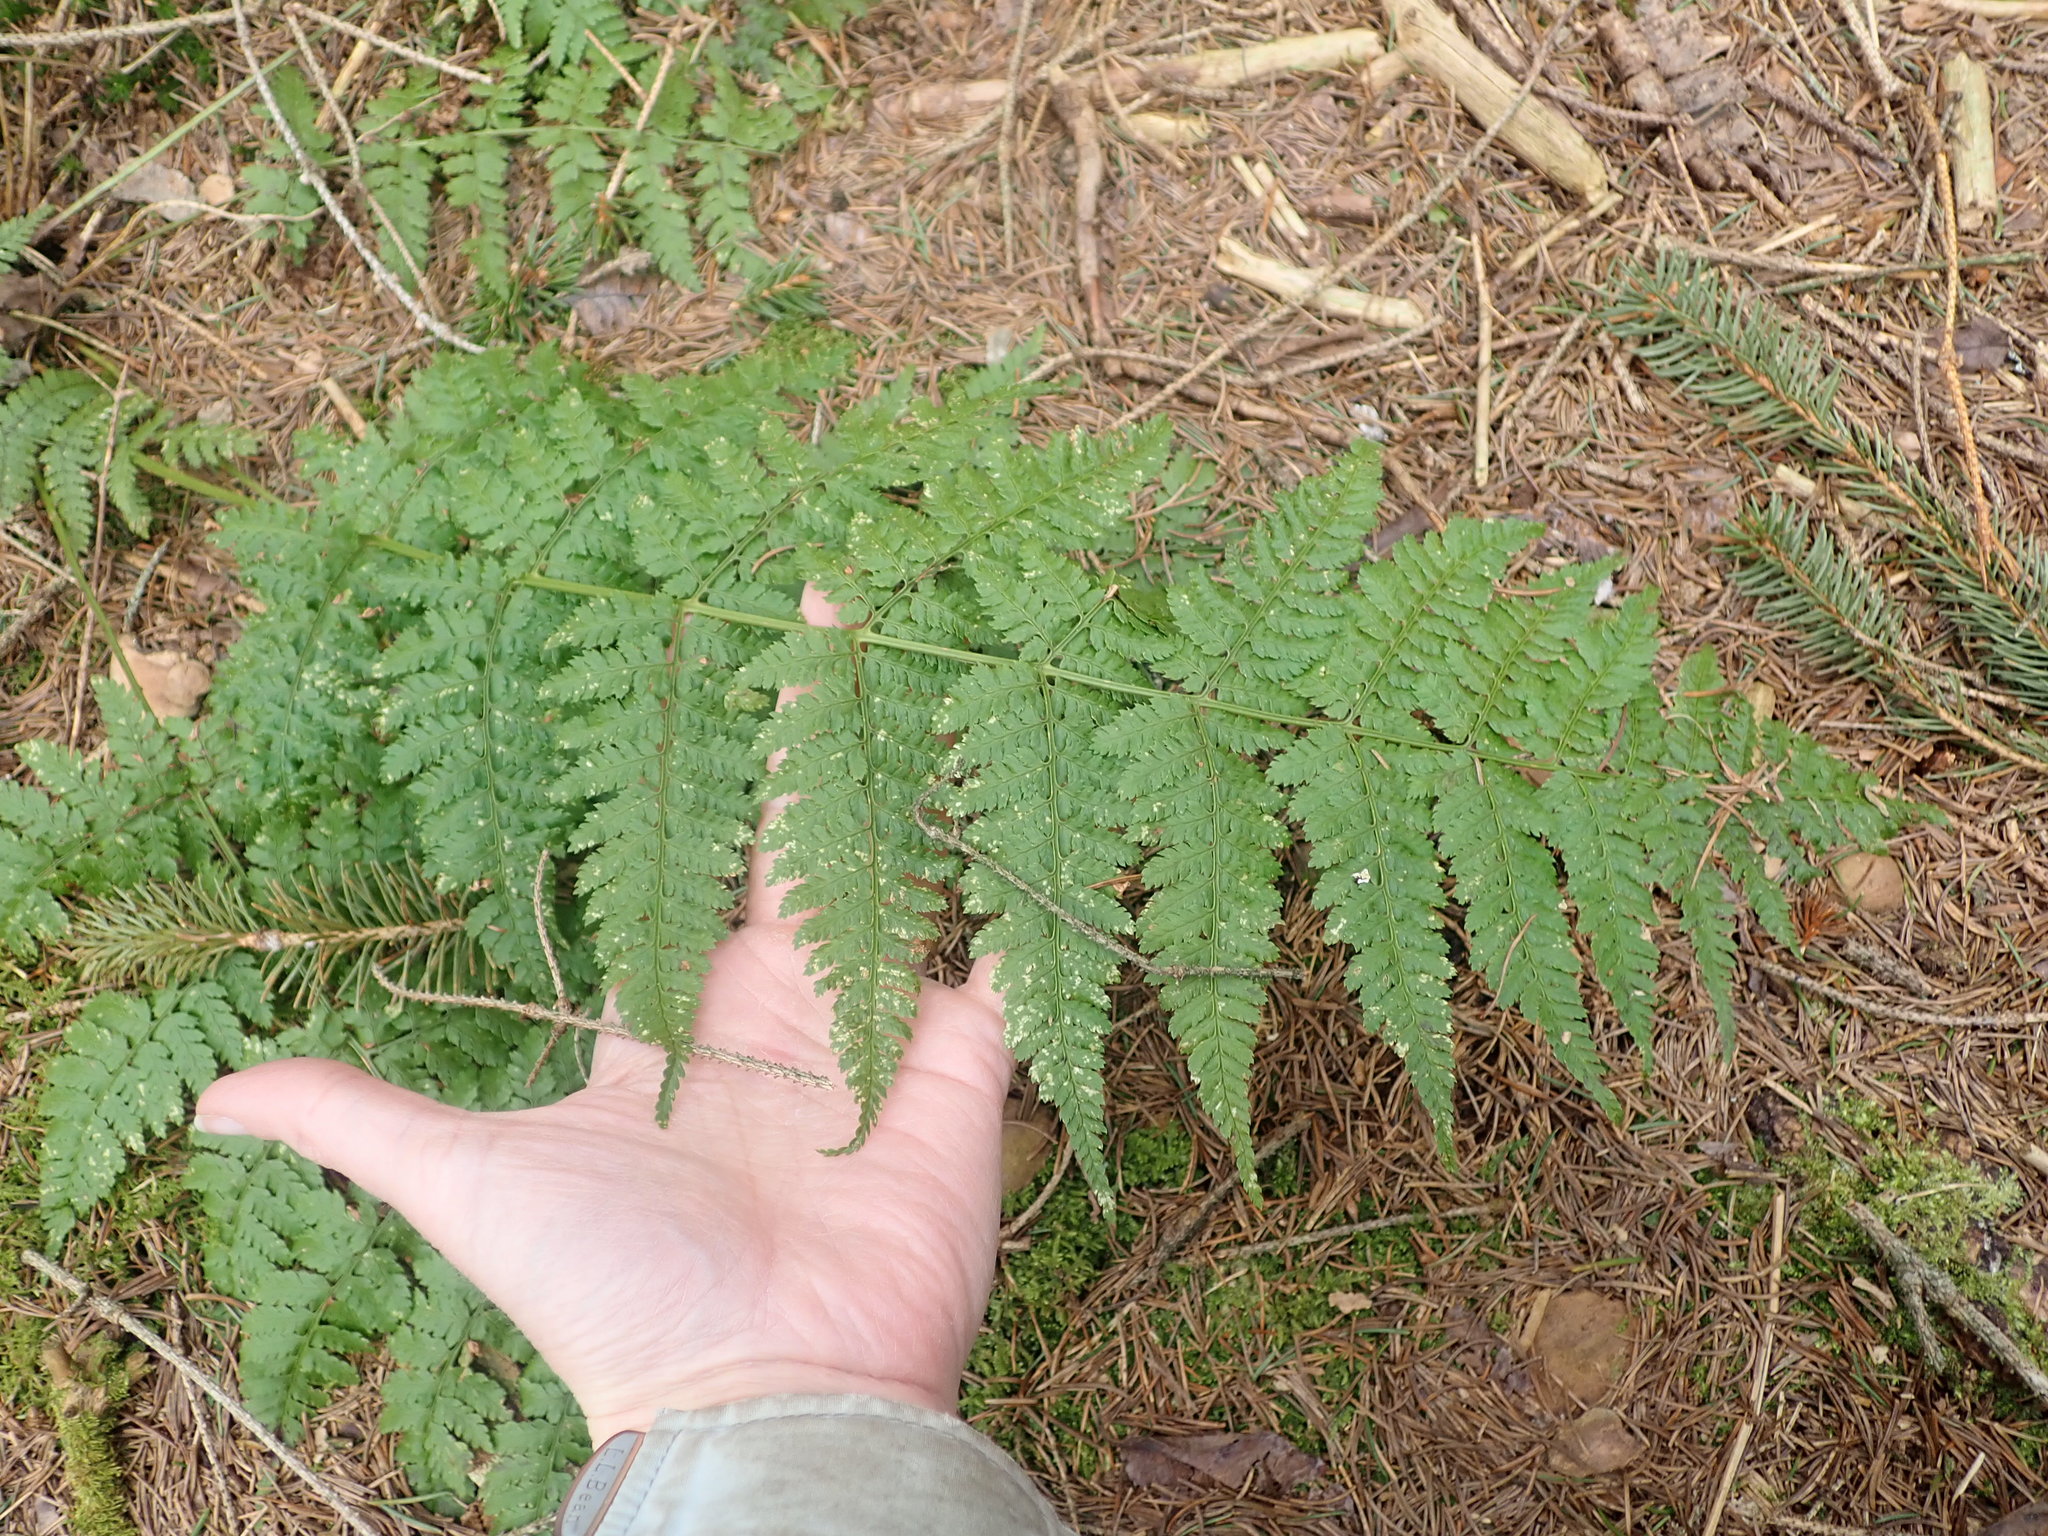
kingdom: Plantae
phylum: Tracheophyta
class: Polypodiopsida
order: Polypodiales
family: Dryopteridaceae
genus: Dryopteris
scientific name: Dryopteris intermedia
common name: Evergreen wood fern
